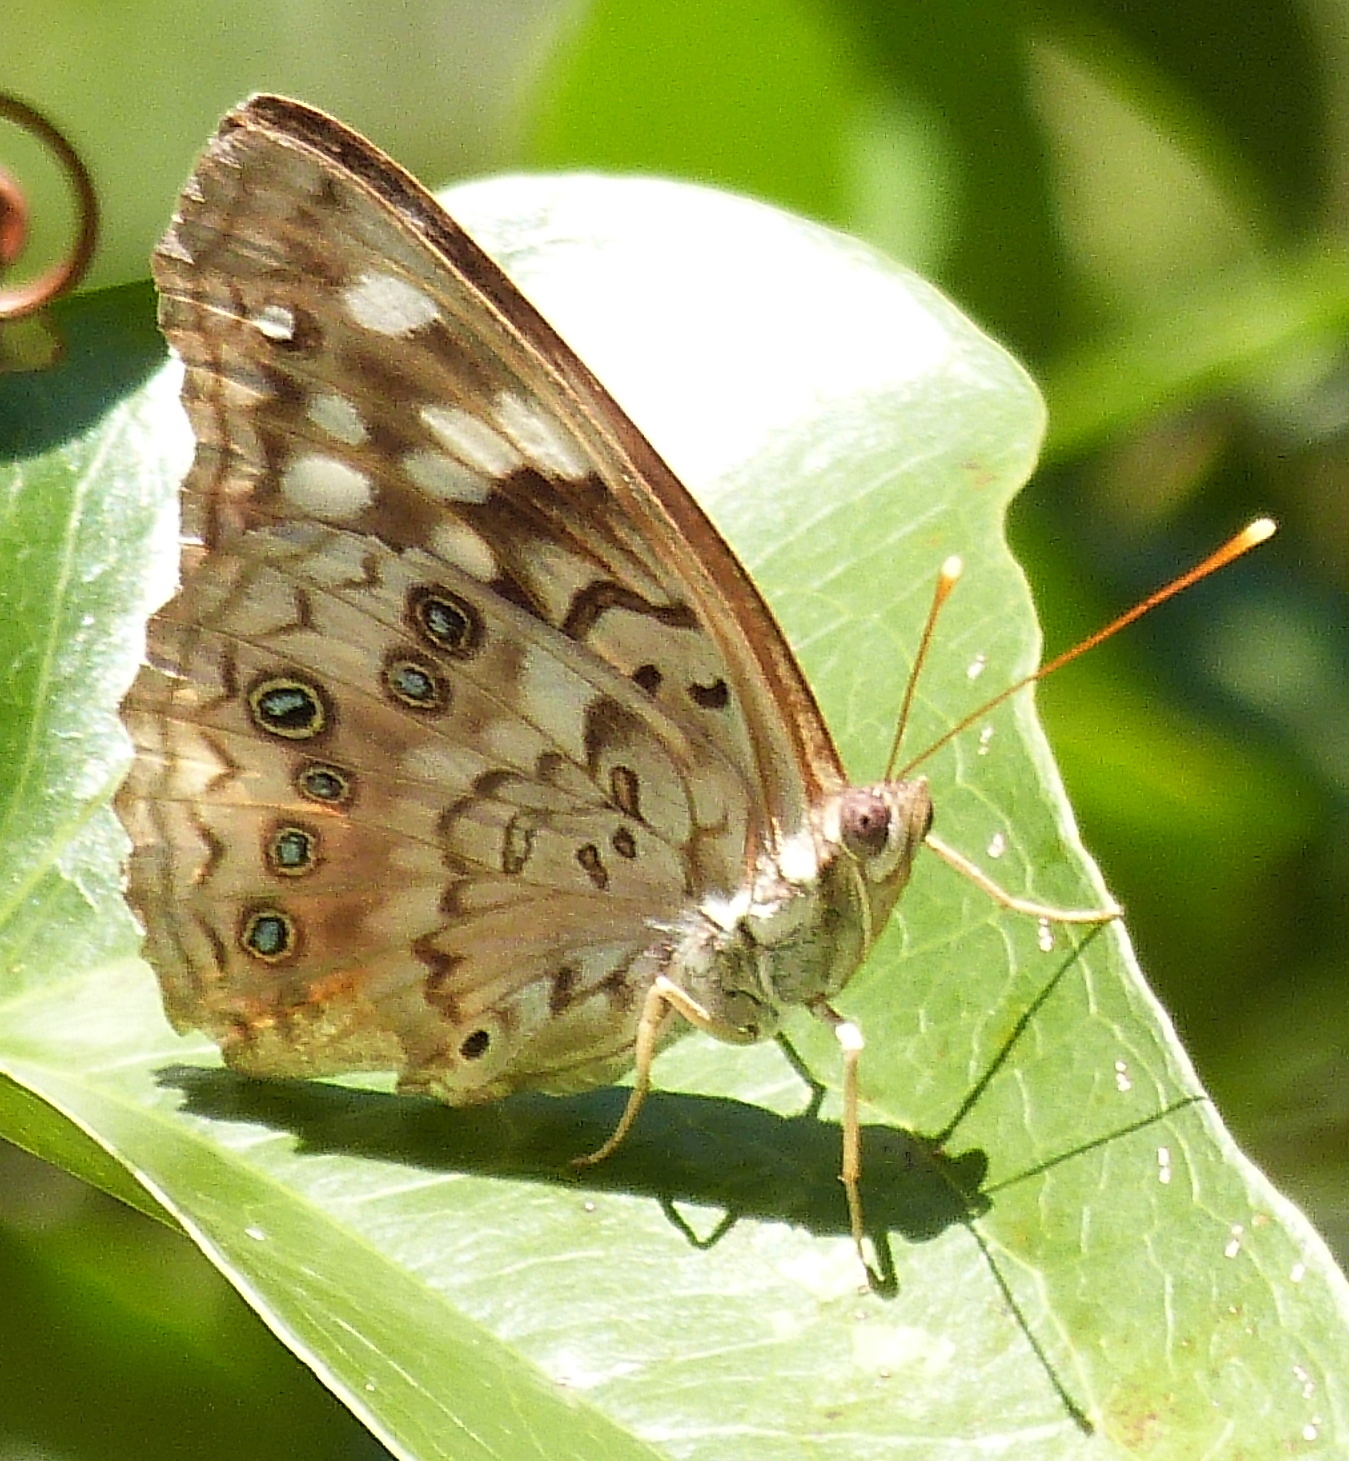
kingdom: Animalia
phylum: Arthropoda
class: Insecta
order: Lepidoptera
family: Nymphalidae
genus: Asterocampa
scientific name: Asterocampa celtis
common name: Hackberry emperor
